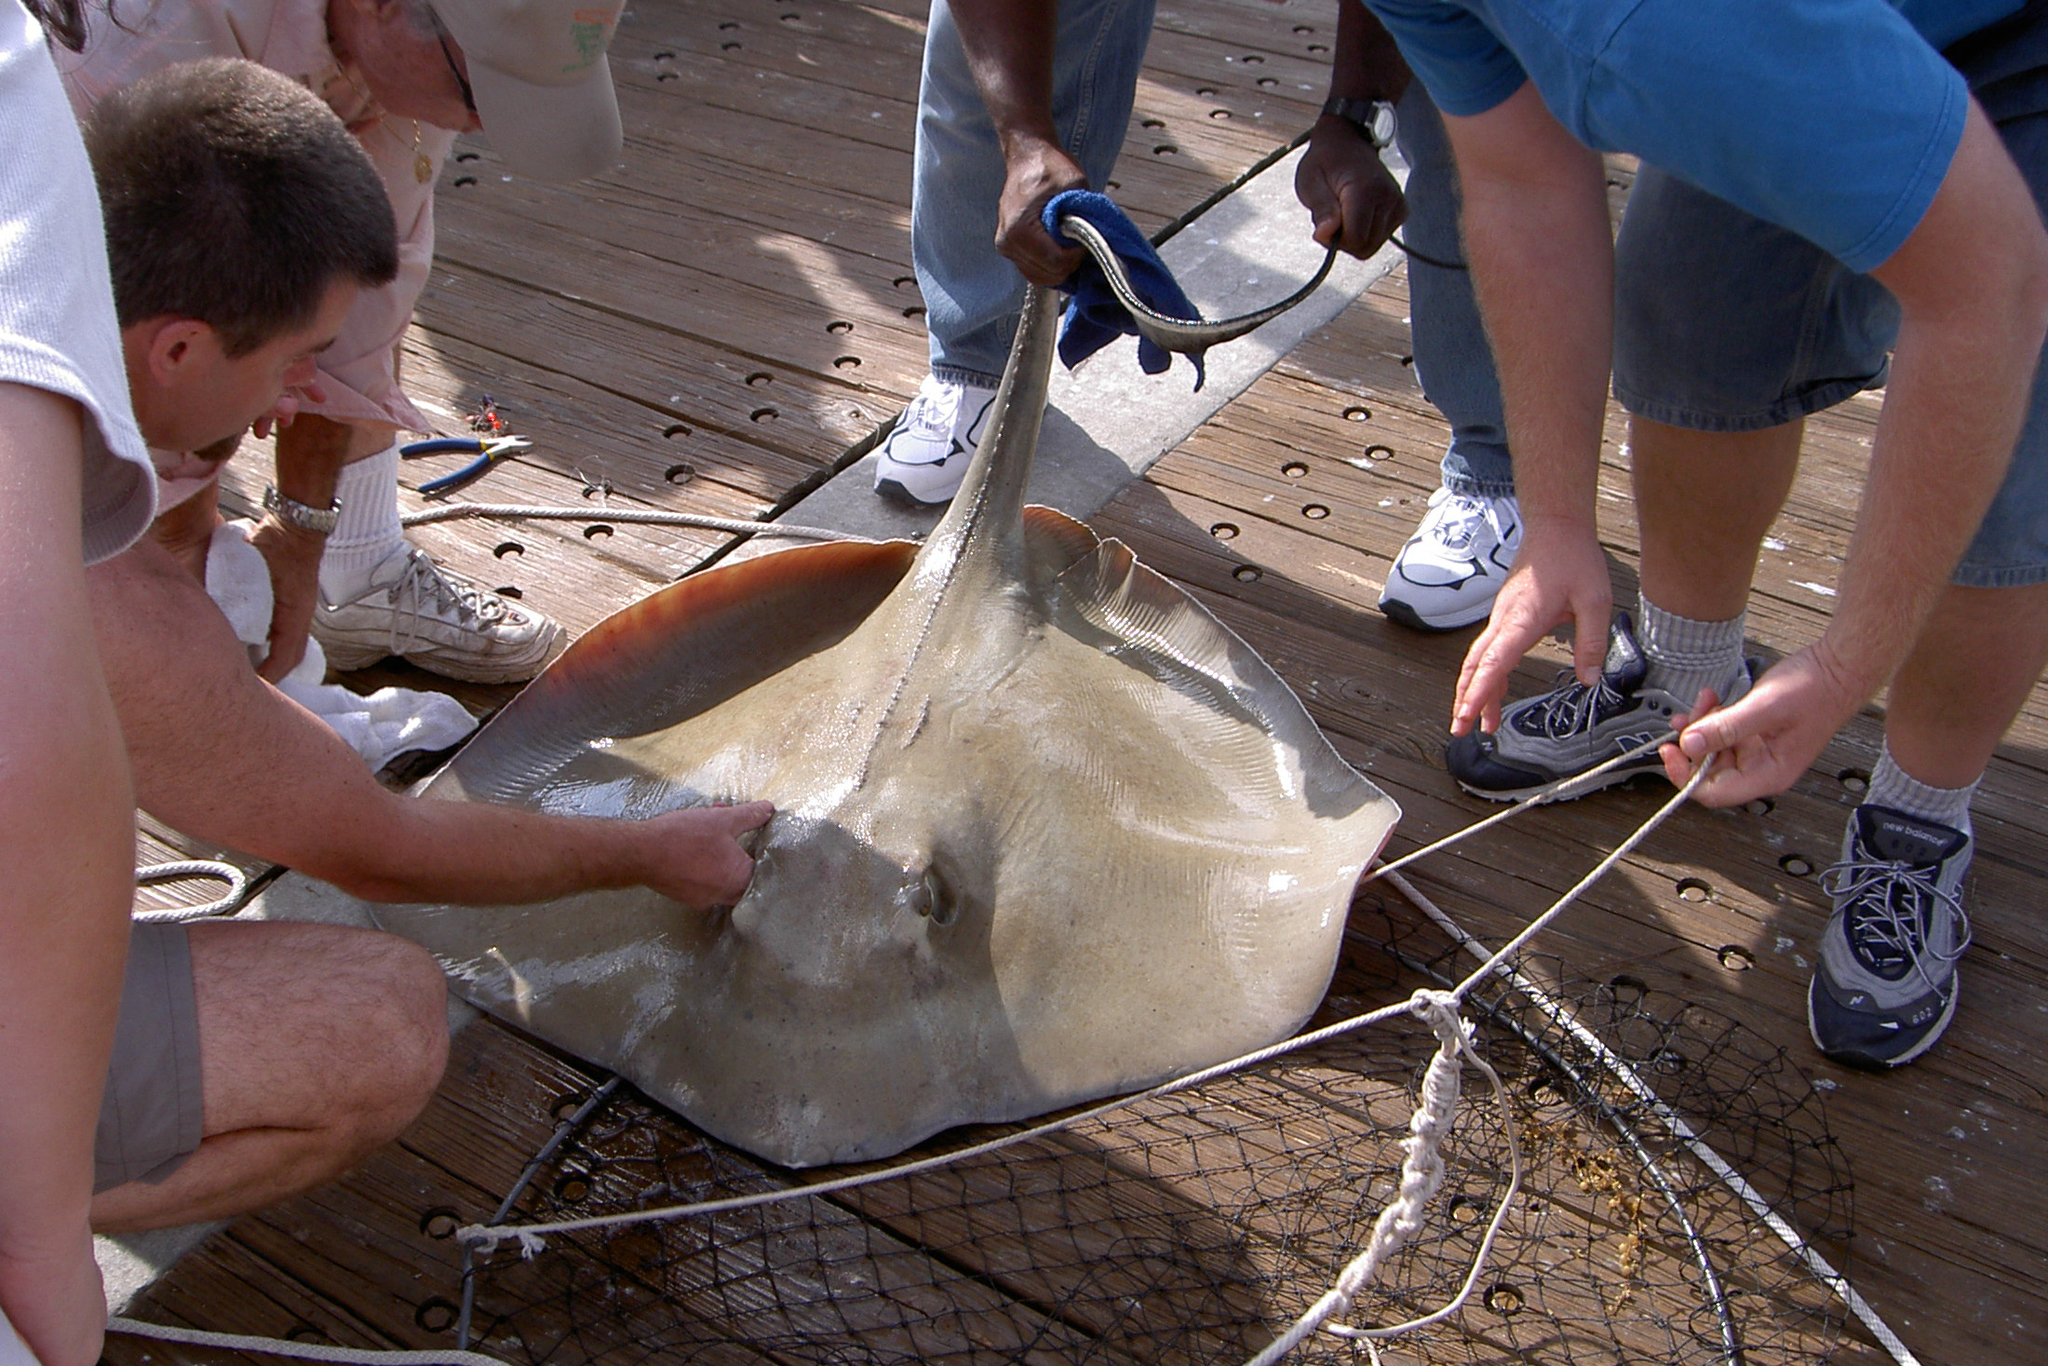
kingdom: Animalia
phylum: Chordata
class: Elasmobranchii
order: Myliobatiformes
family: Dasyatidae
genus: Hypanus
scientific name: Hypanus americanus
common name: Southern stingray
